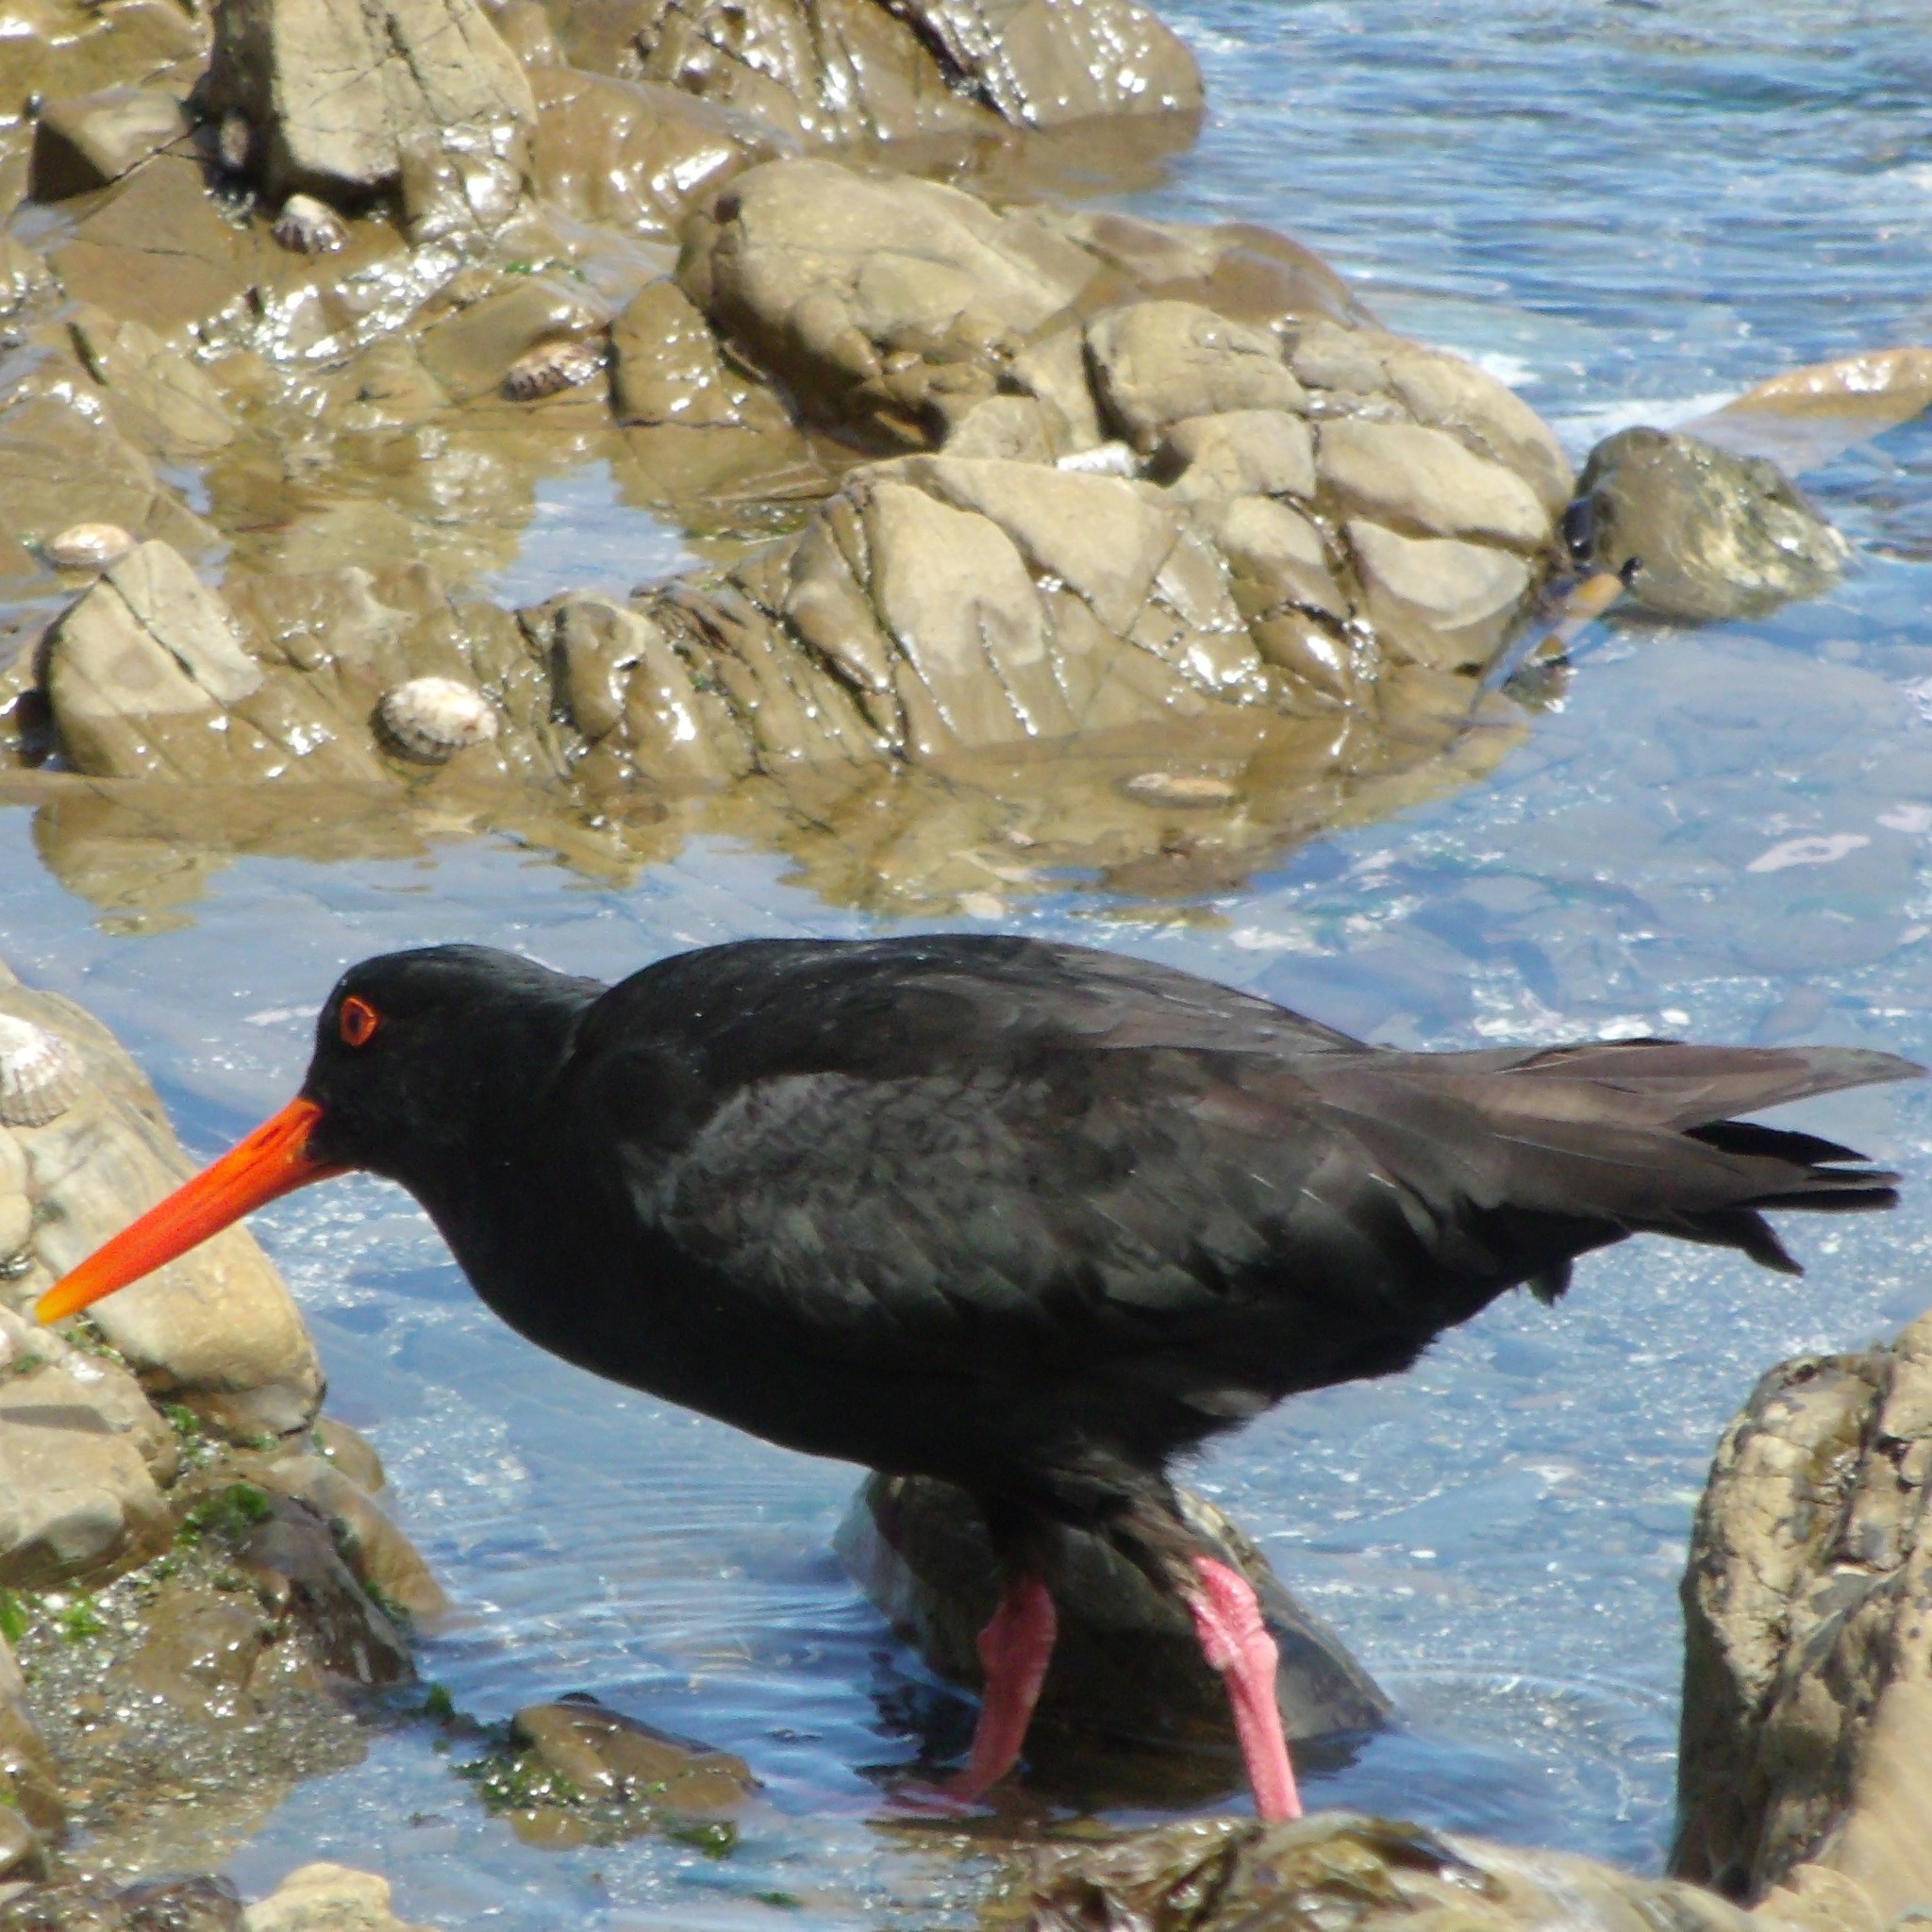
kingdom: Animalia
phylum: Chordata
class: Aves
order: Charadriiformes
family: Haematopodidae
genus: Haematopus
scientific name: Haematopus unicolor
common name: Variable oystercatcher
